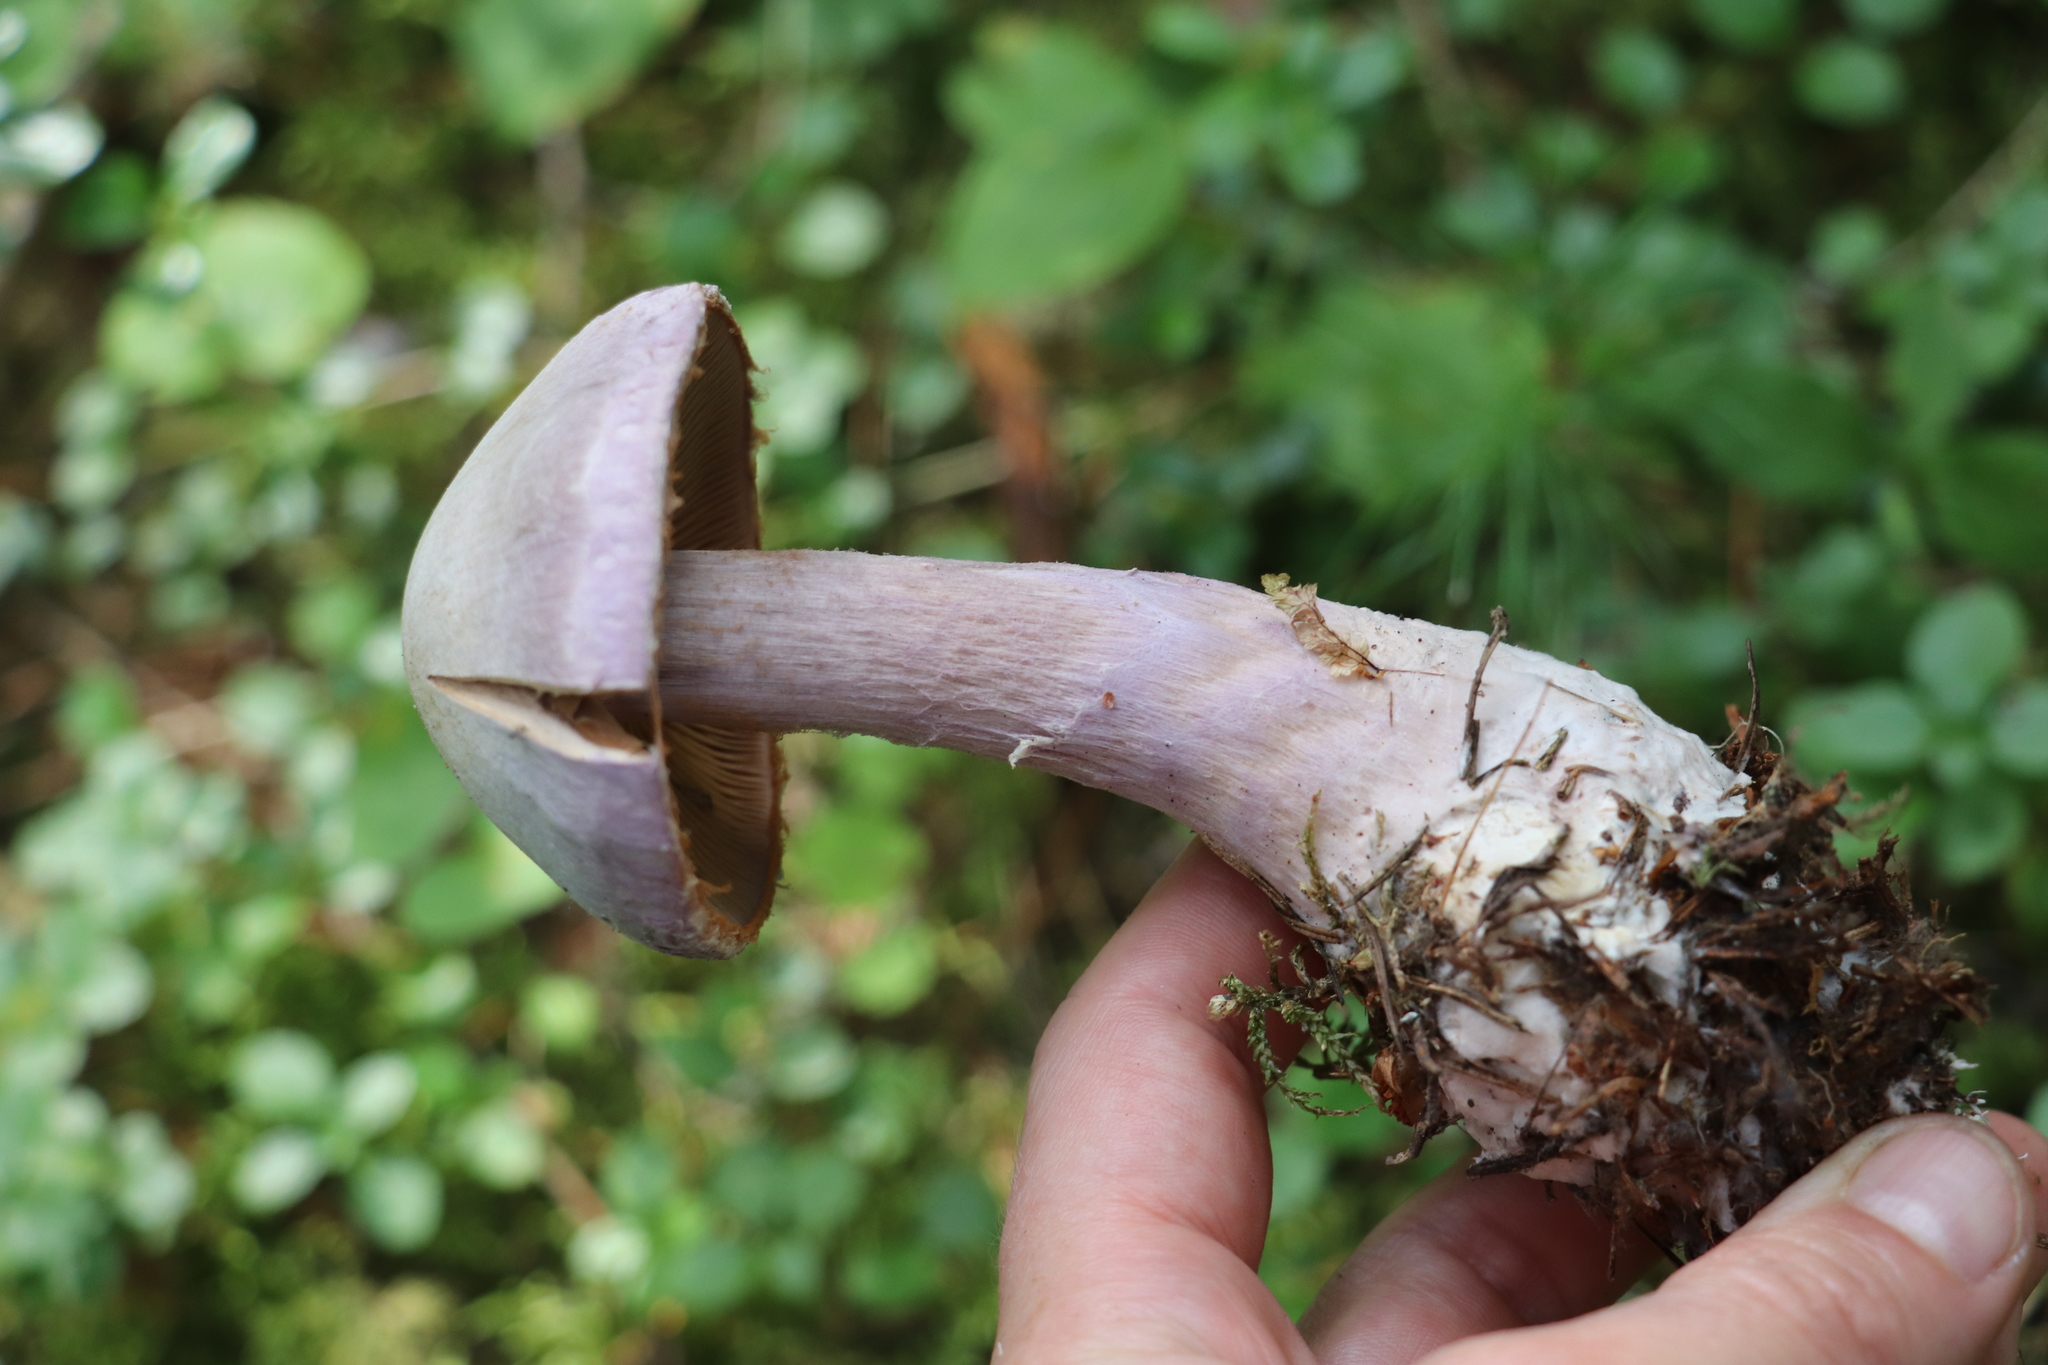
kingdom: Fungi
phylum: Basidiomycota
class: Agaricomycetes
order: Agaricales
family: Cortinariaceae
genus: Cortinarius
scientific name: Cortinarius camphoratus
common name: Goatcheese webcap
